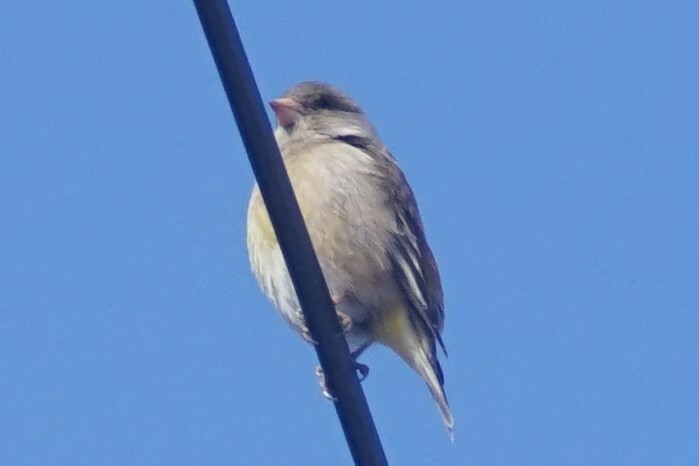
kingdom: Plantae
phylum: Tracheophyta
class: Liliopsida
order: Poales
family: Poaceae
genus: Chloris
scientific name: Chloris sinica
